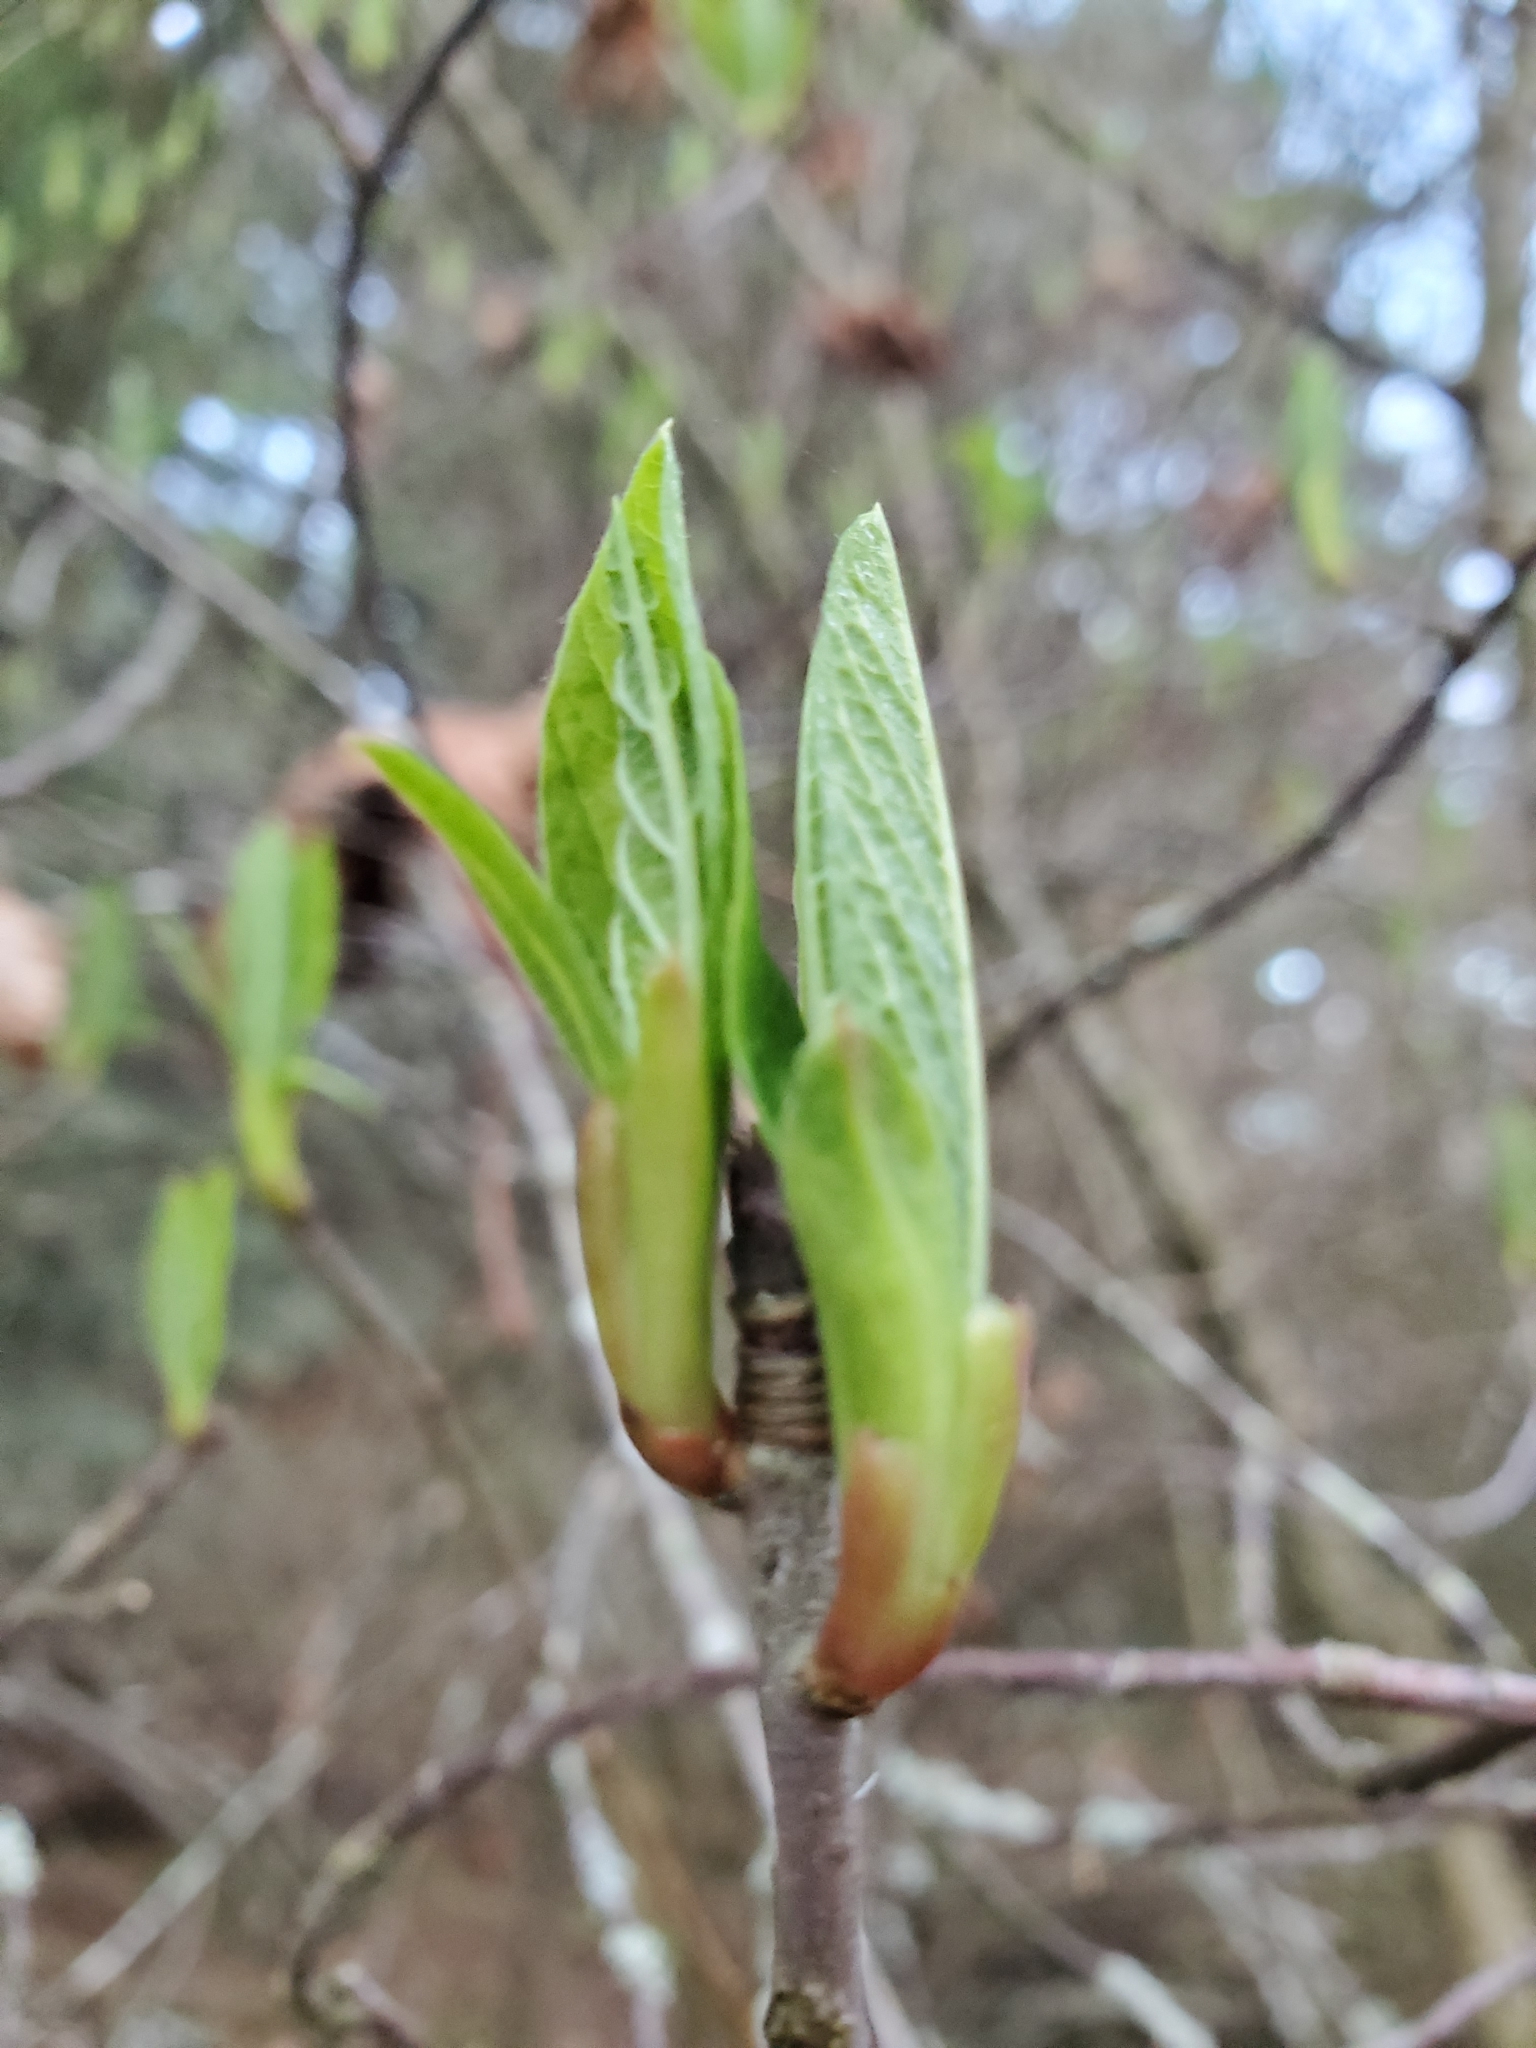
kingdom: Plantae
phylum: Tracheophyta
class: Magnoliopsida
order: Rosales
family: Rosaceae
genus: Oemleria
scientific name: Oemleria cerasiformis
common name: Osoberry
